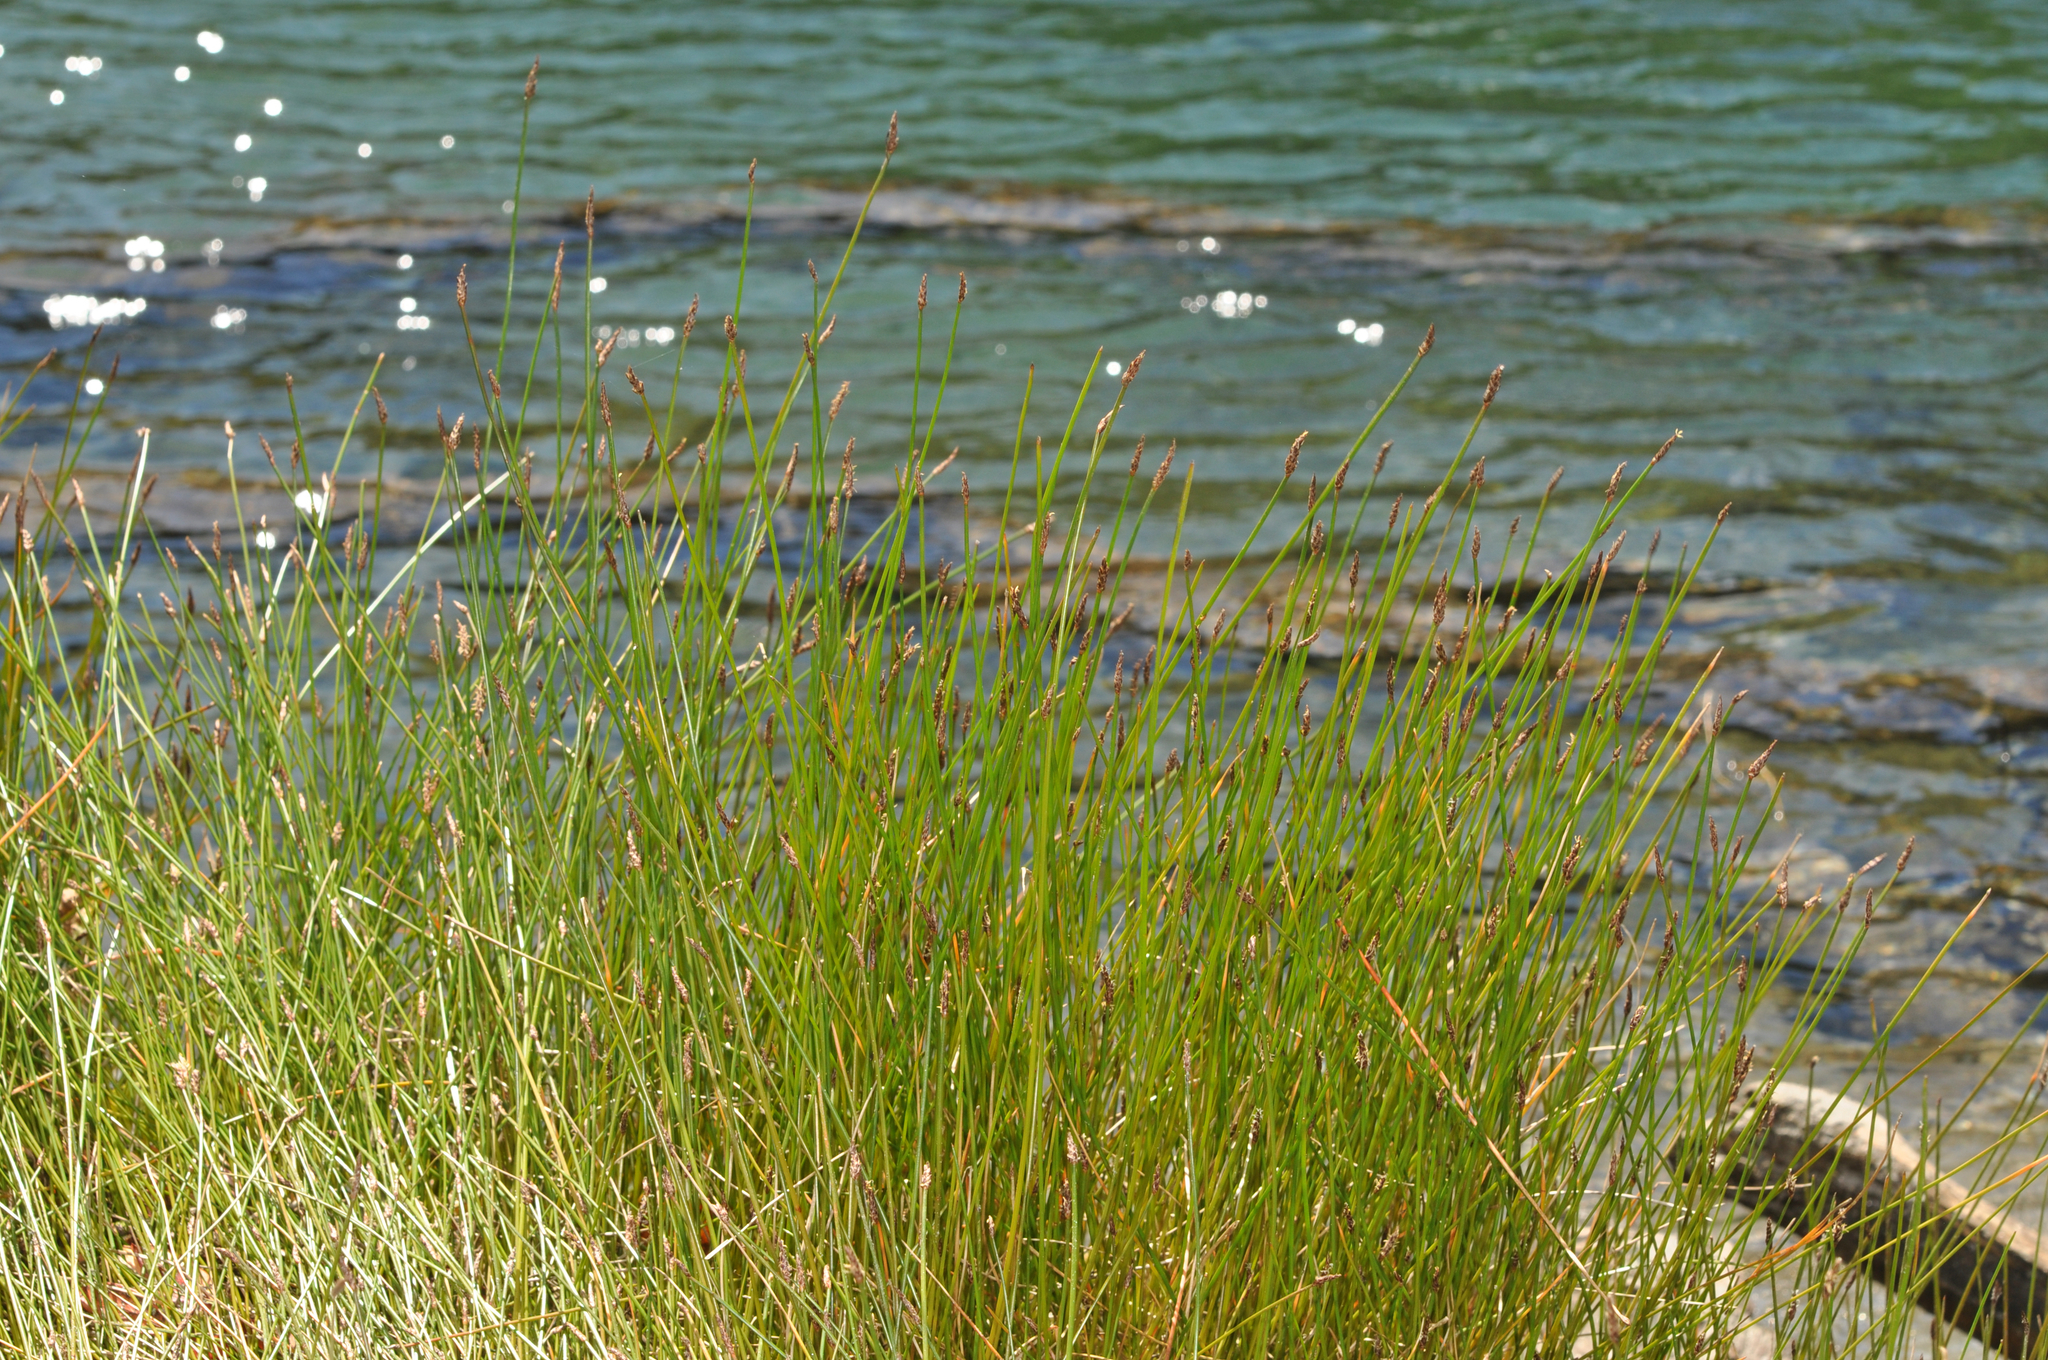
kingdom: Plantae
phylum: Tracheophyta
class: Liliopsida
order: Poales
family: Cyperaceae
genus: Eleocharis
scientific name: Eleocharis acuta
